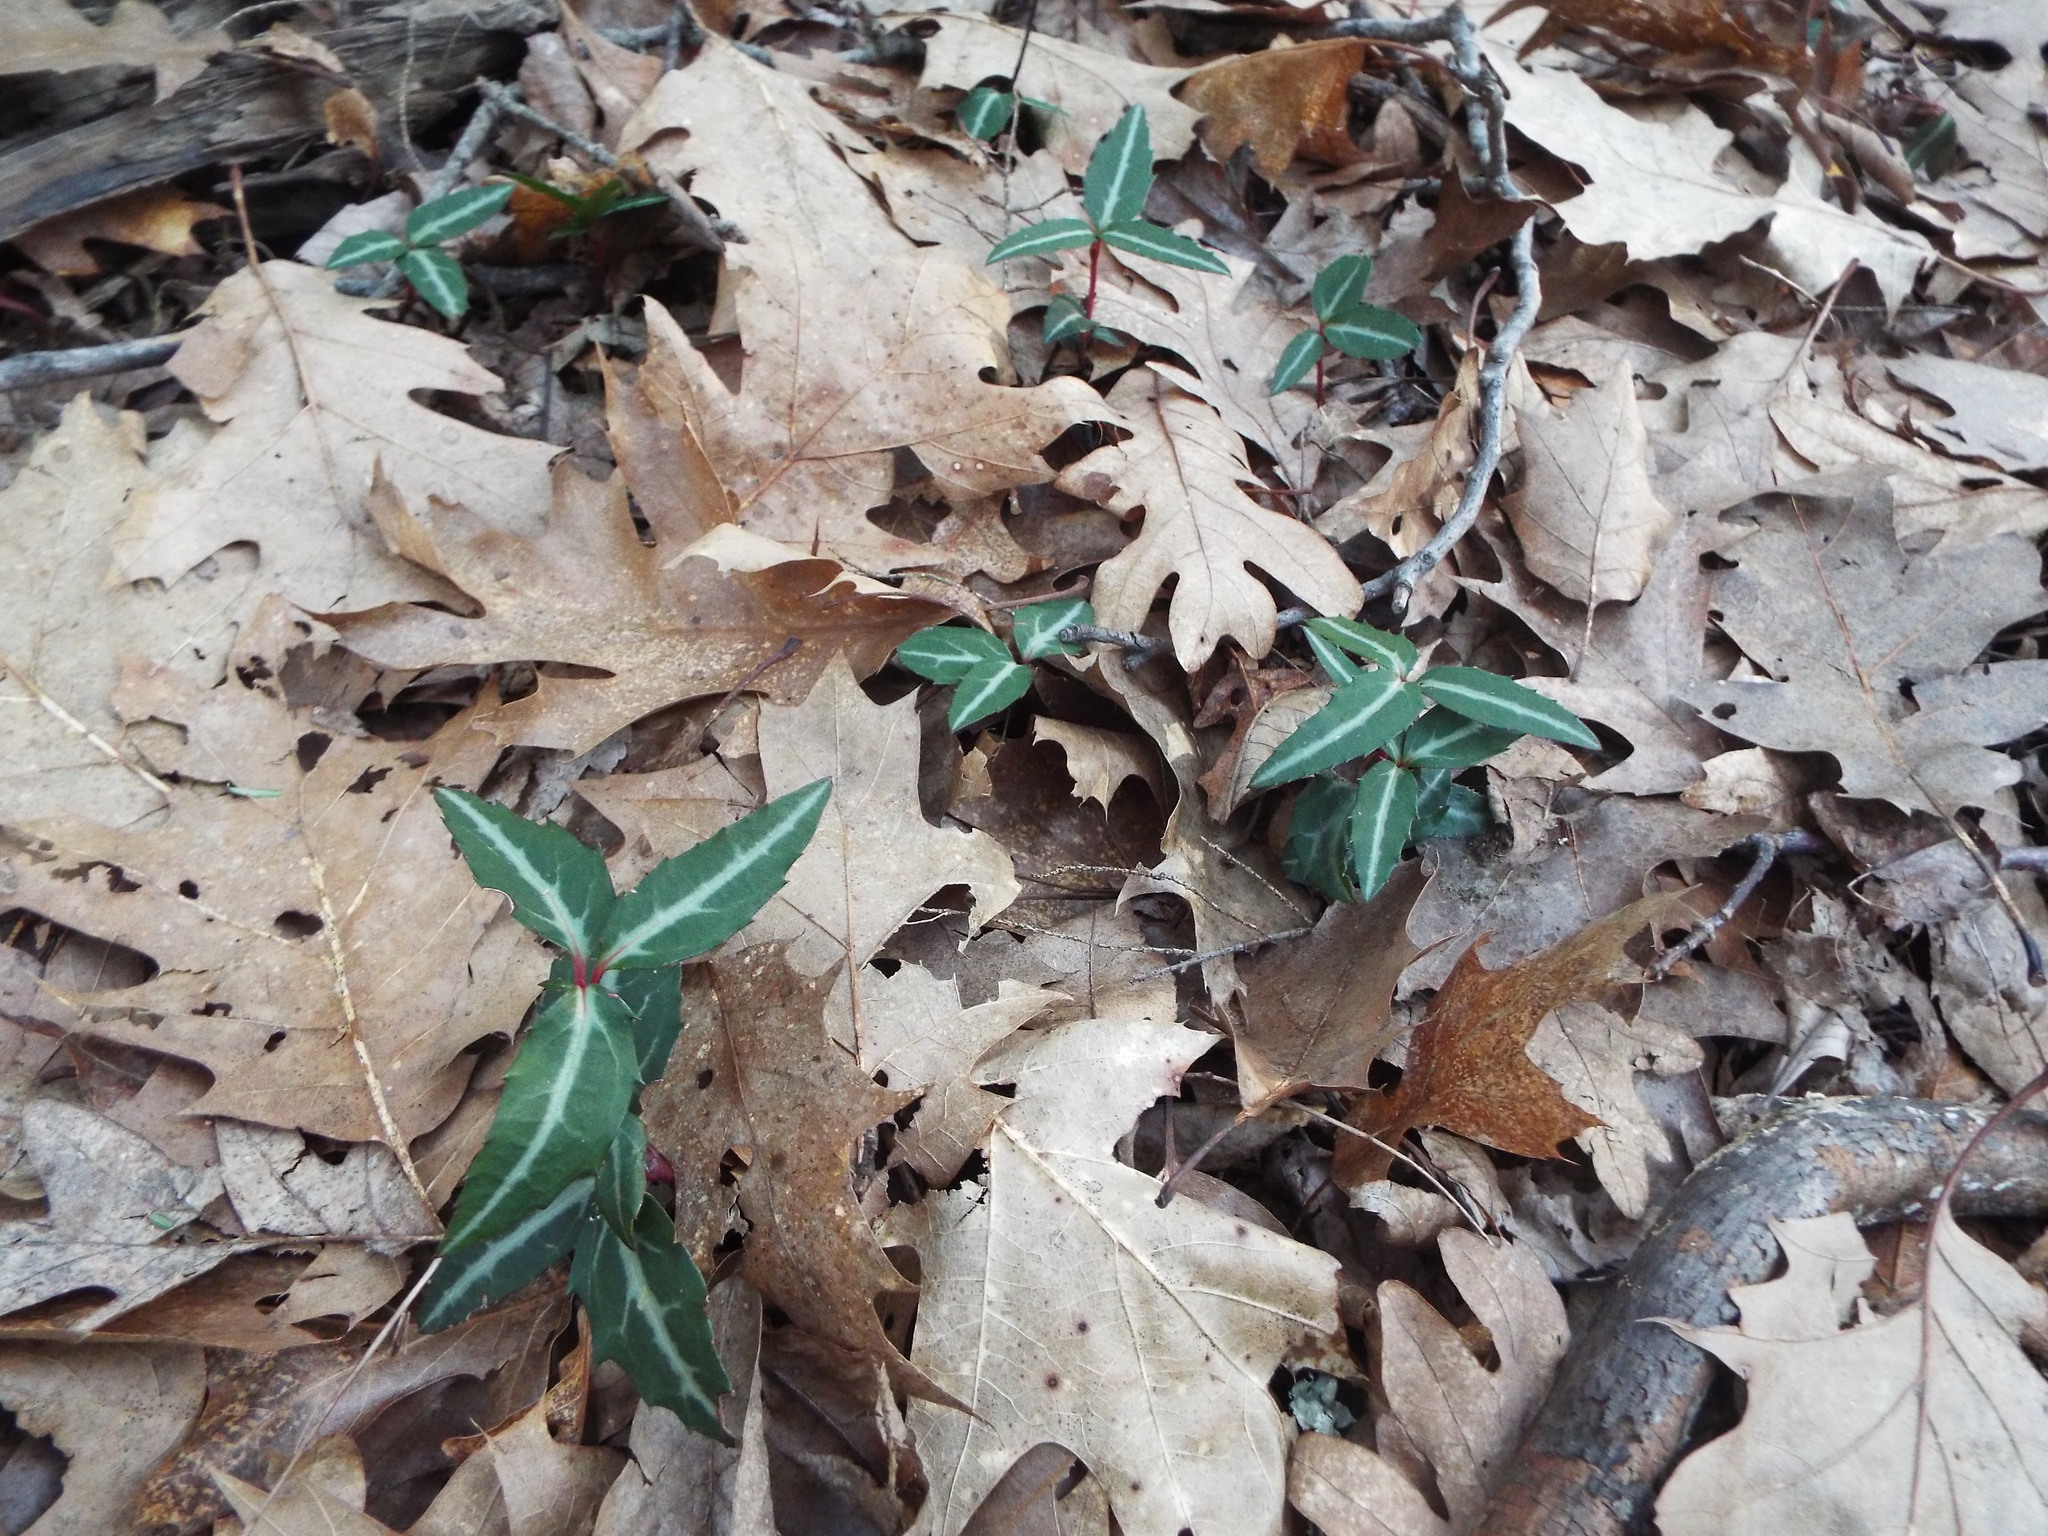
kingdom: Plantae
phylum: Tracheophyta
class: Magnoliopsida
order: Ericales
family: Ericaceae
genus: Chimaphila
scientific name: Chimaphila maculata
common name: Spotted pipsissewa
